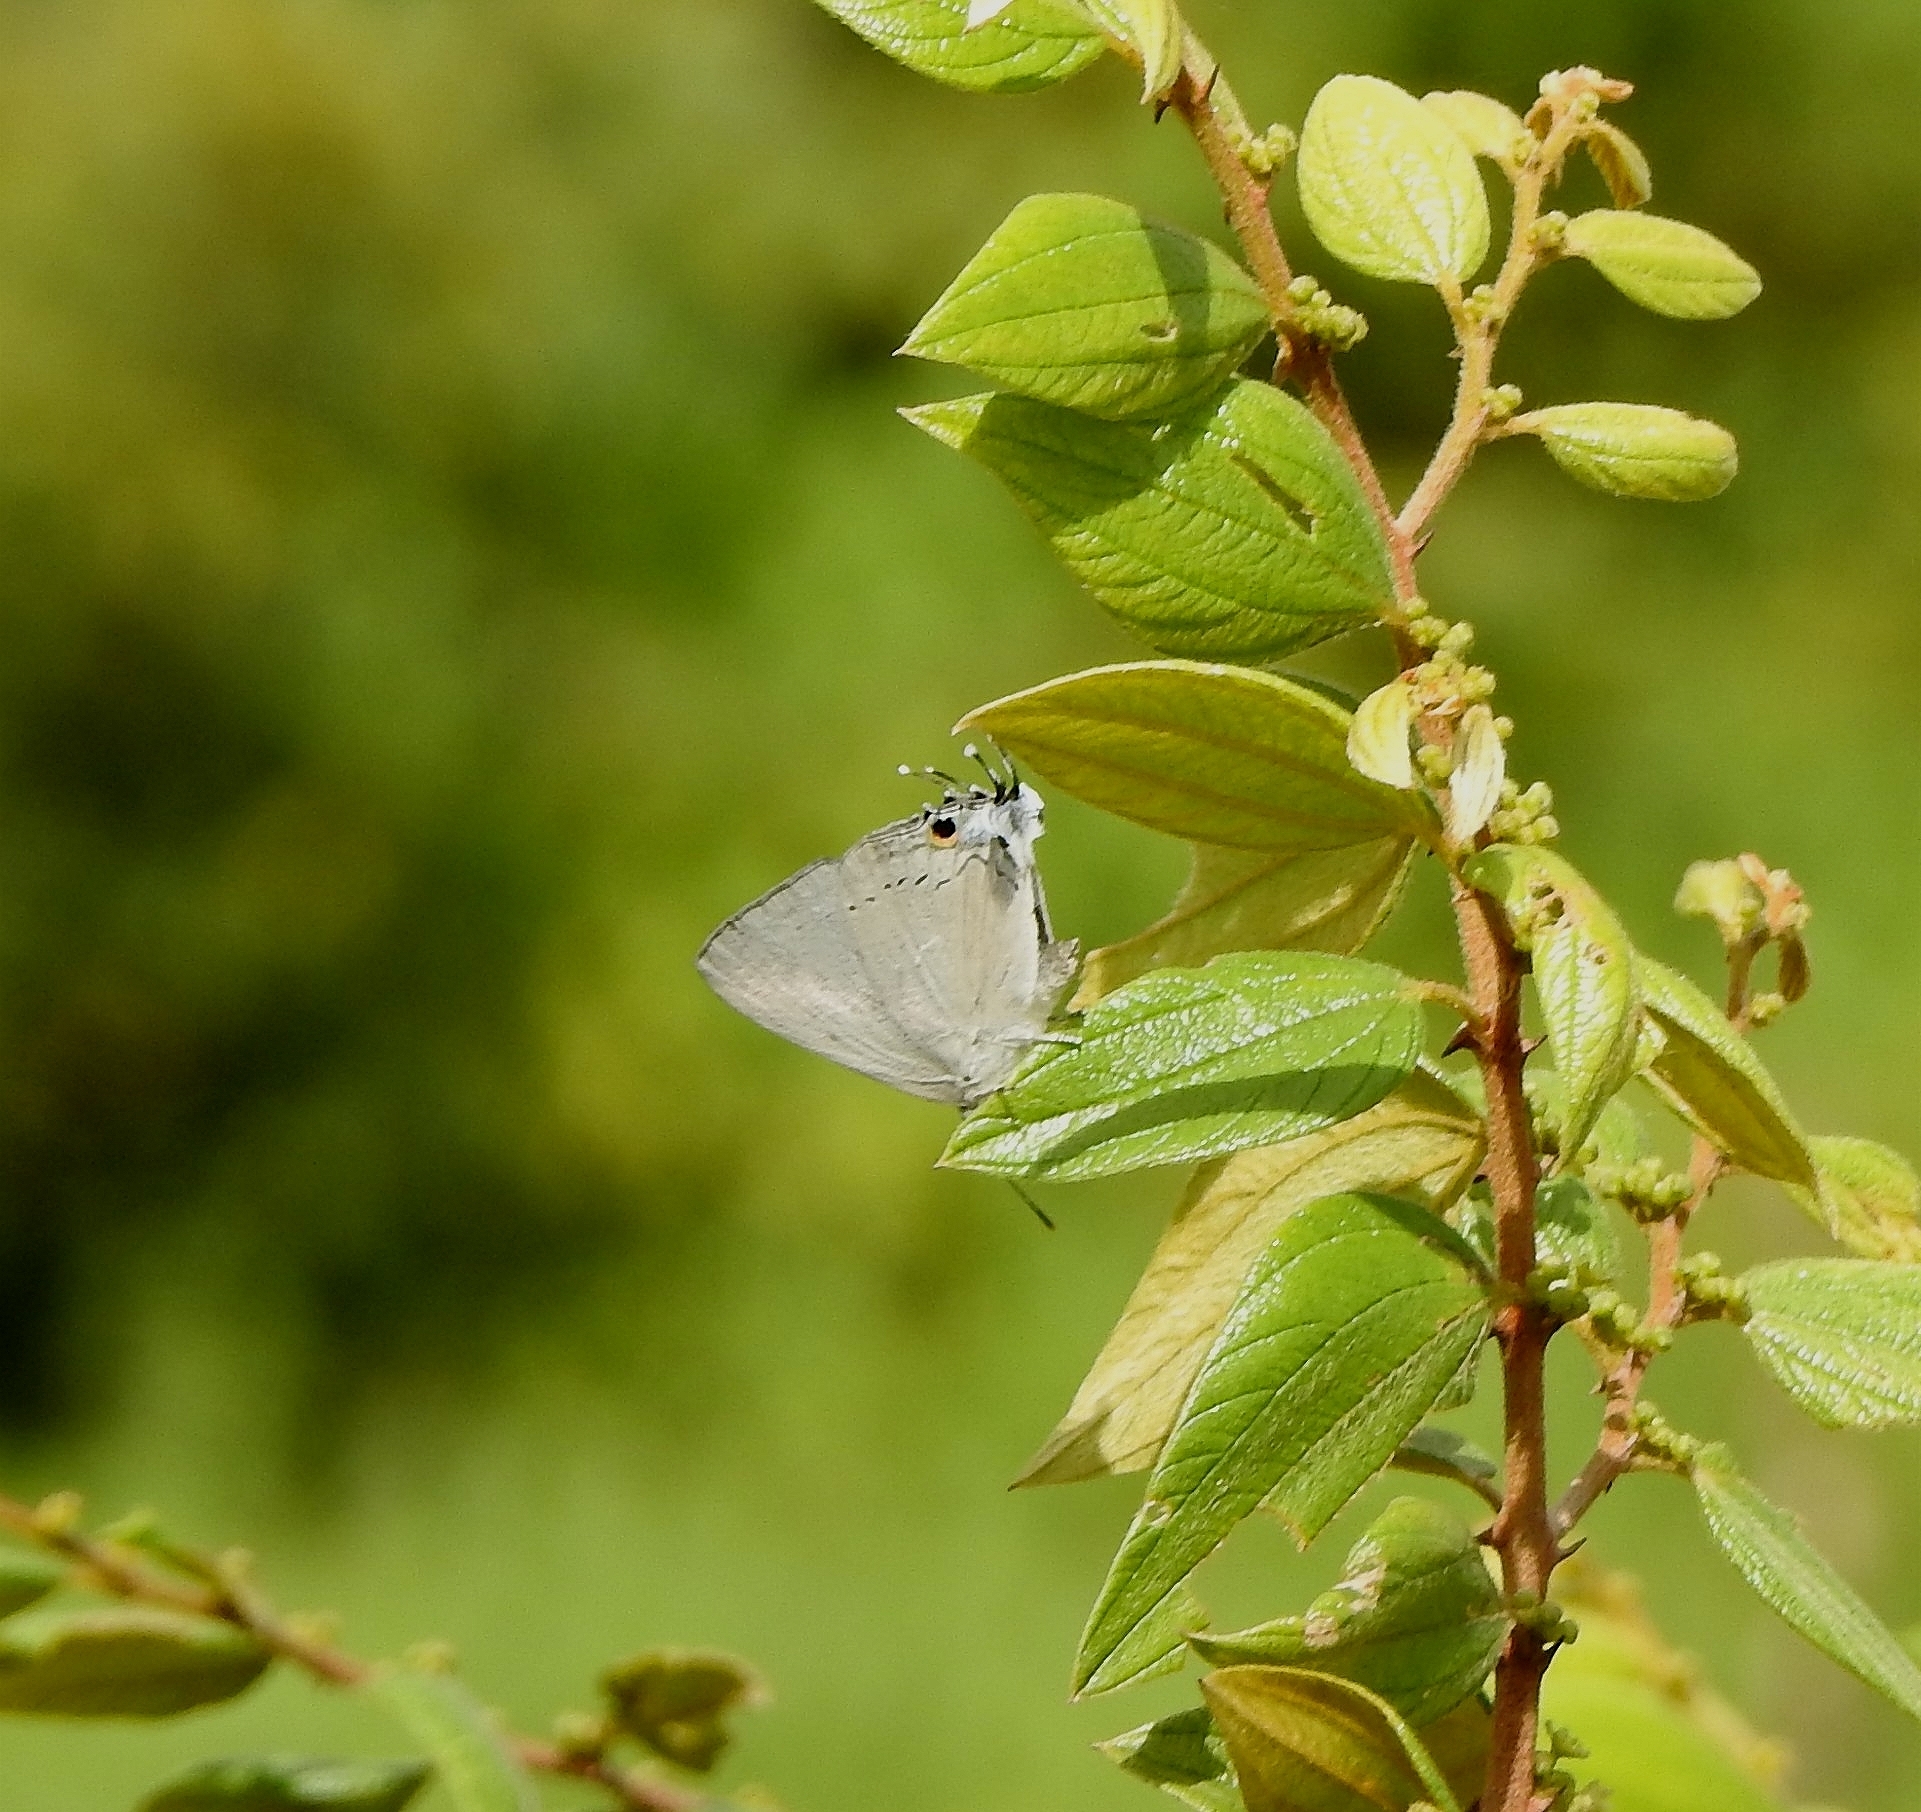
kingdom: Animalia
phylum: Arthropoda
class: Insecta
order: Lepidoptera
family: Lycaenidae
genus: Tajuria
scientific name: Tajuria cippus
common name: Peacock royal
